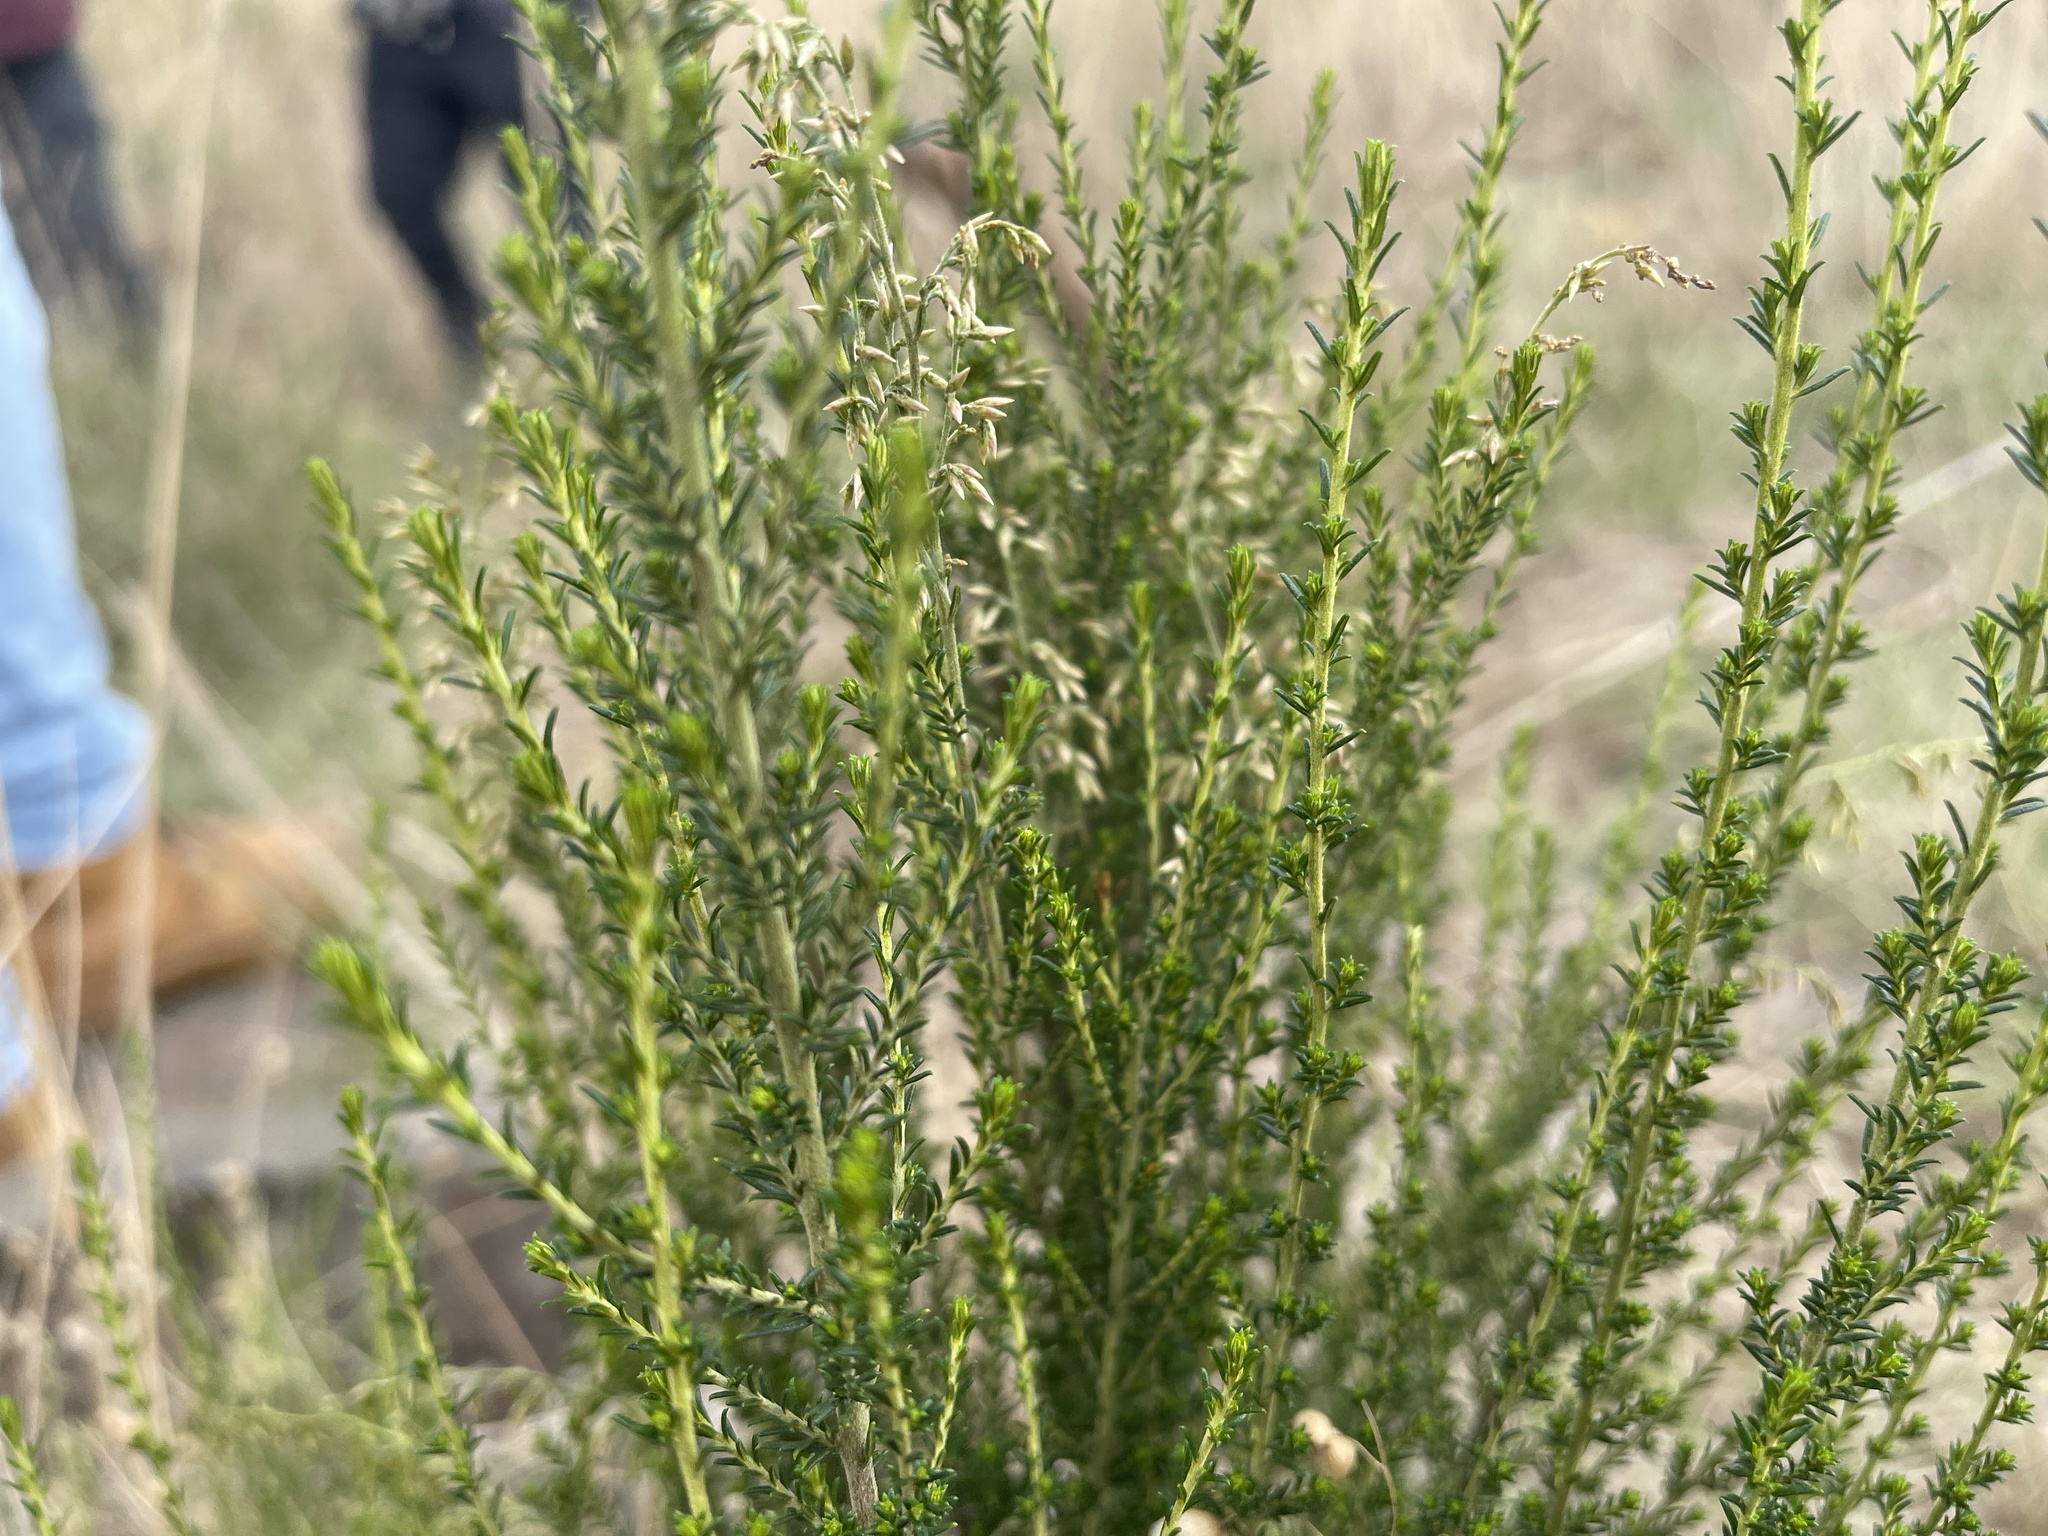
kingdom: Plantae
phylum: Tracheophyta
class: Magnoliopsida
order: Asterales
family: Asteraceae
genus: Cassinia
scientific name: Cassinia sifton
